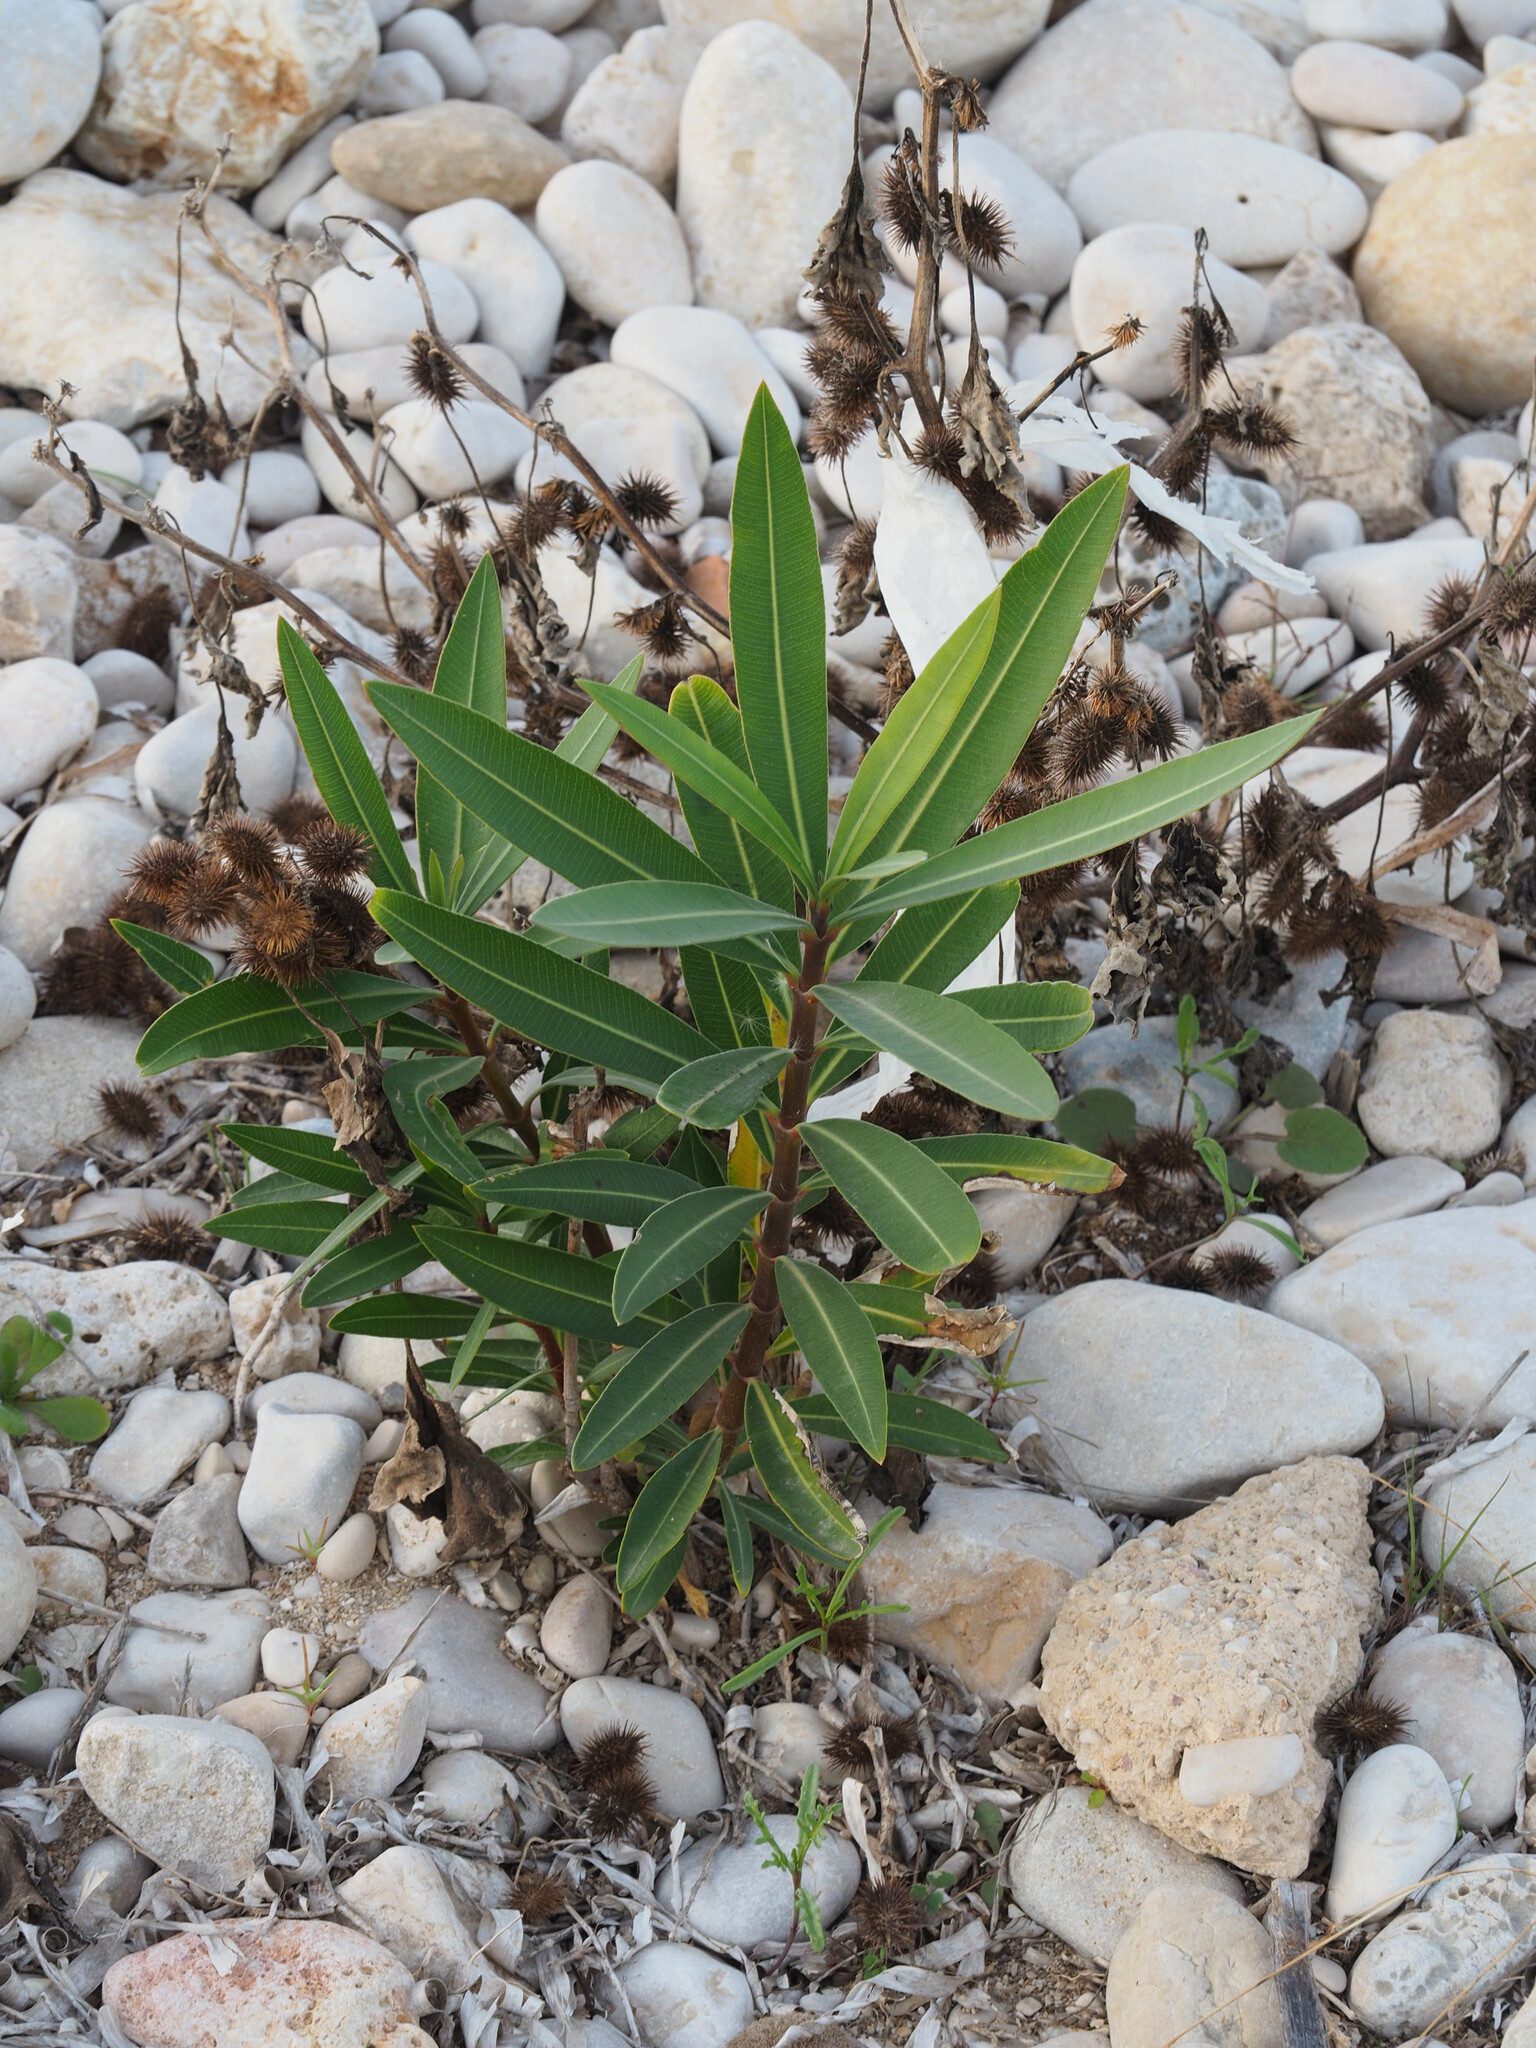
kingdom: Plantae
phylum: Tracheophyta
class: Magnoliopsida
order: Gentianales
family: Apocynaceae
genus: Nerium
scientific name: Nerium oleander
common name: Oleander
